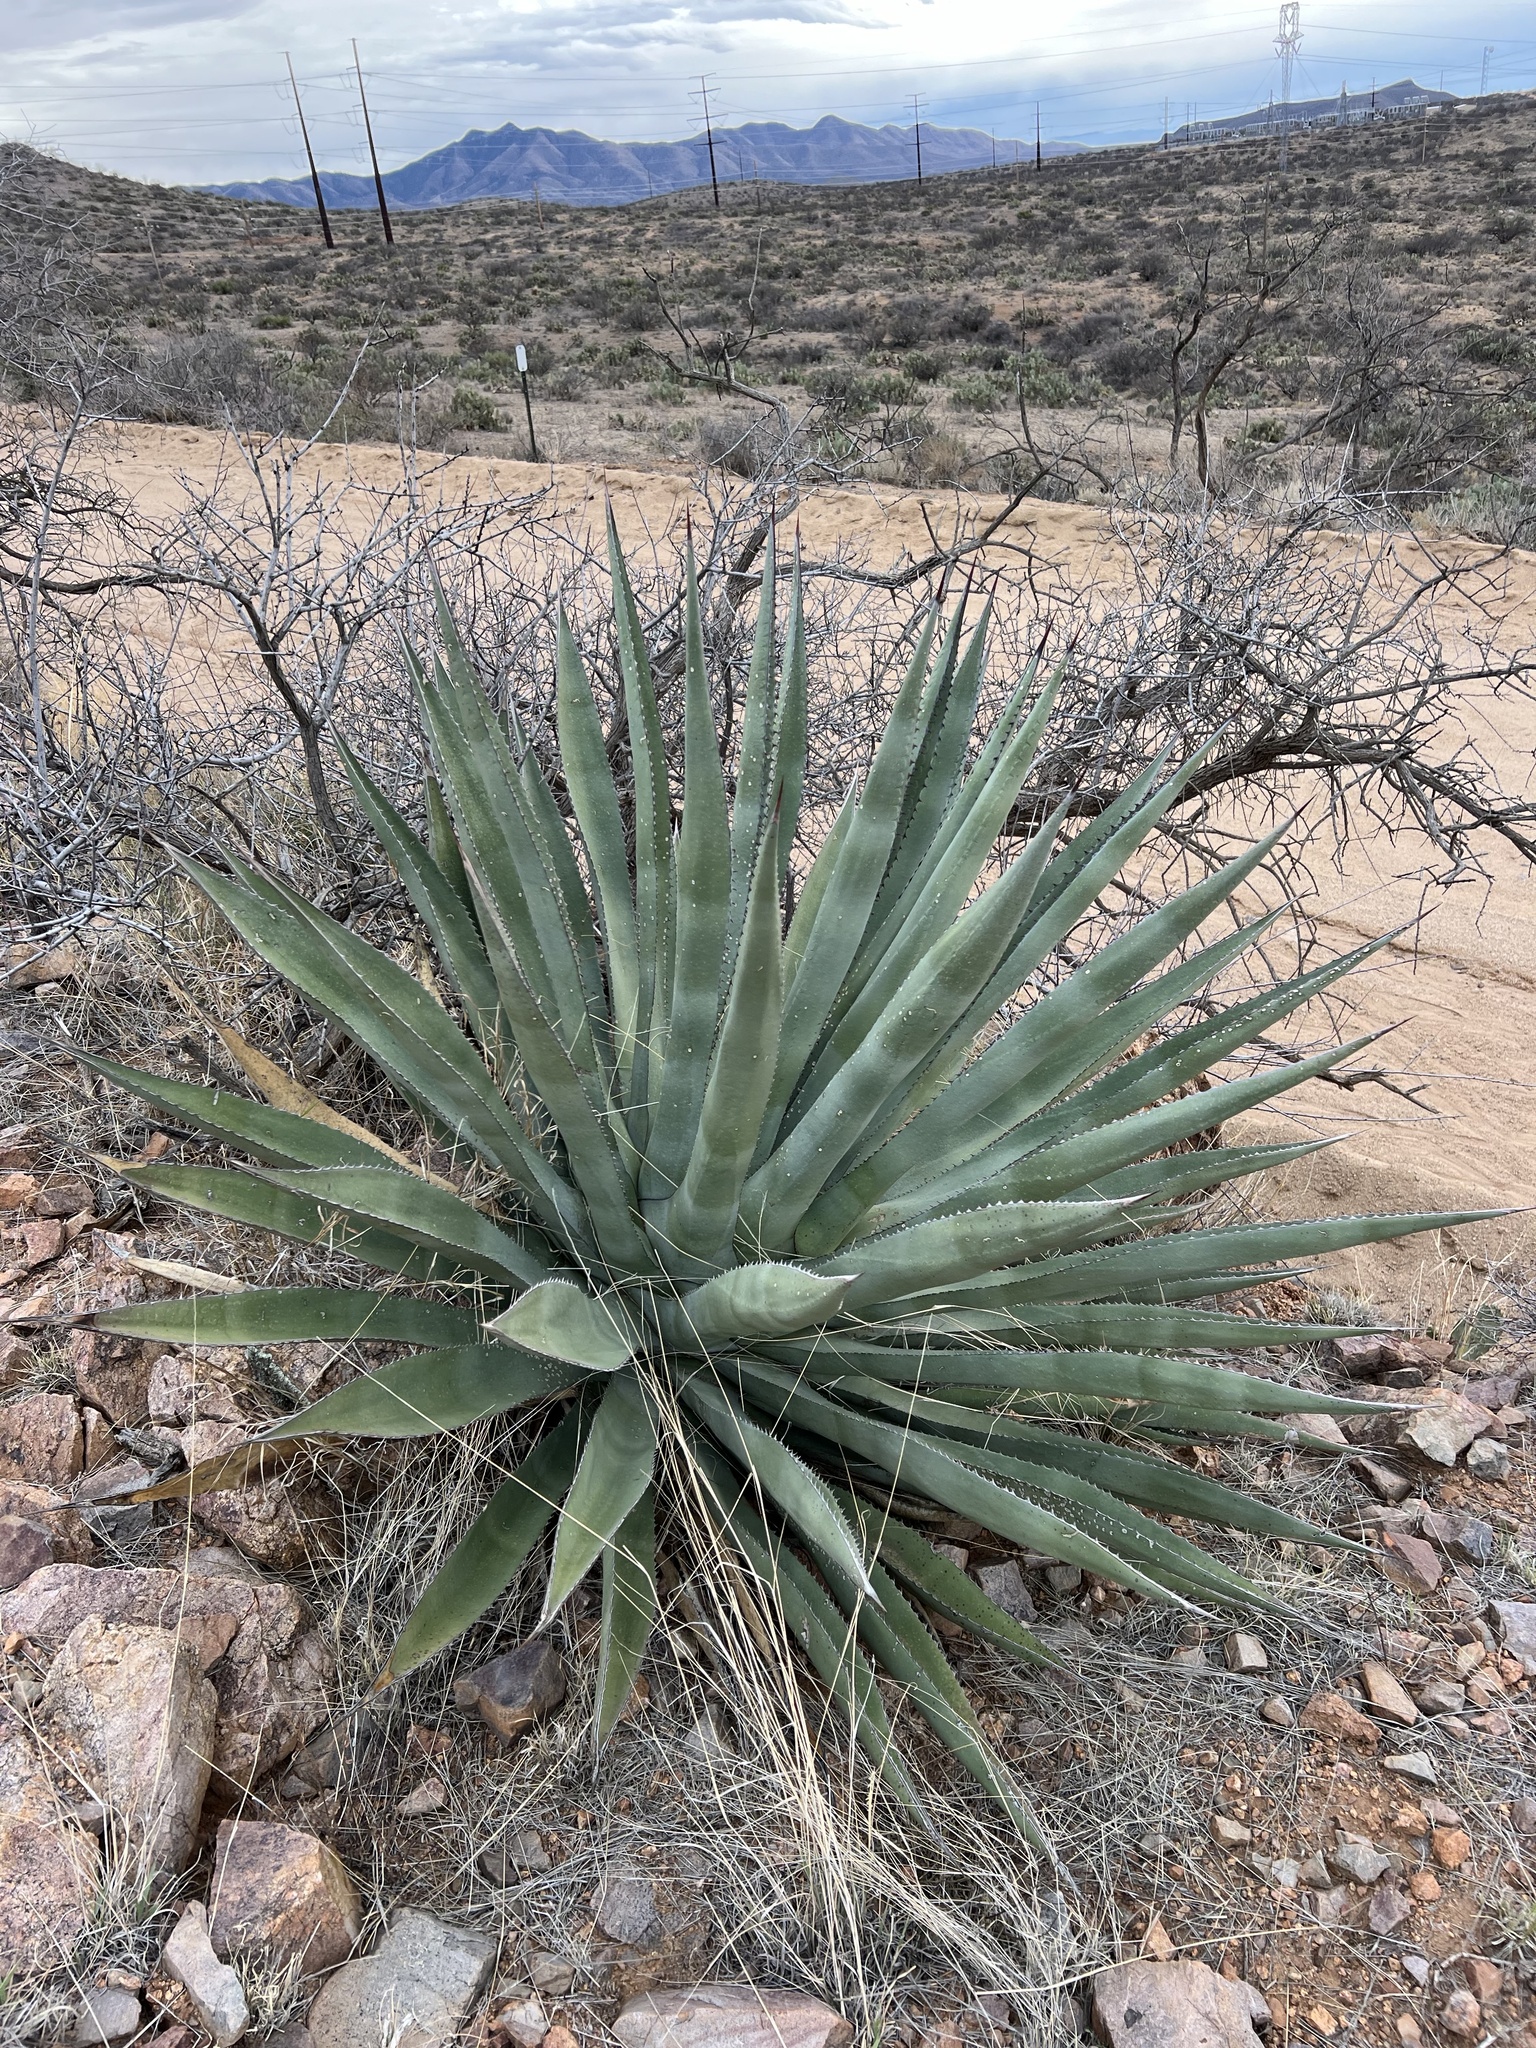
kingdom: Plantae
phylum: Tracheophyta
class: Liliopsida
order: Asparagales
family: Asparagaceae
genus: Agave
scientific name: Agave palmeri
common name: Palmer agave
